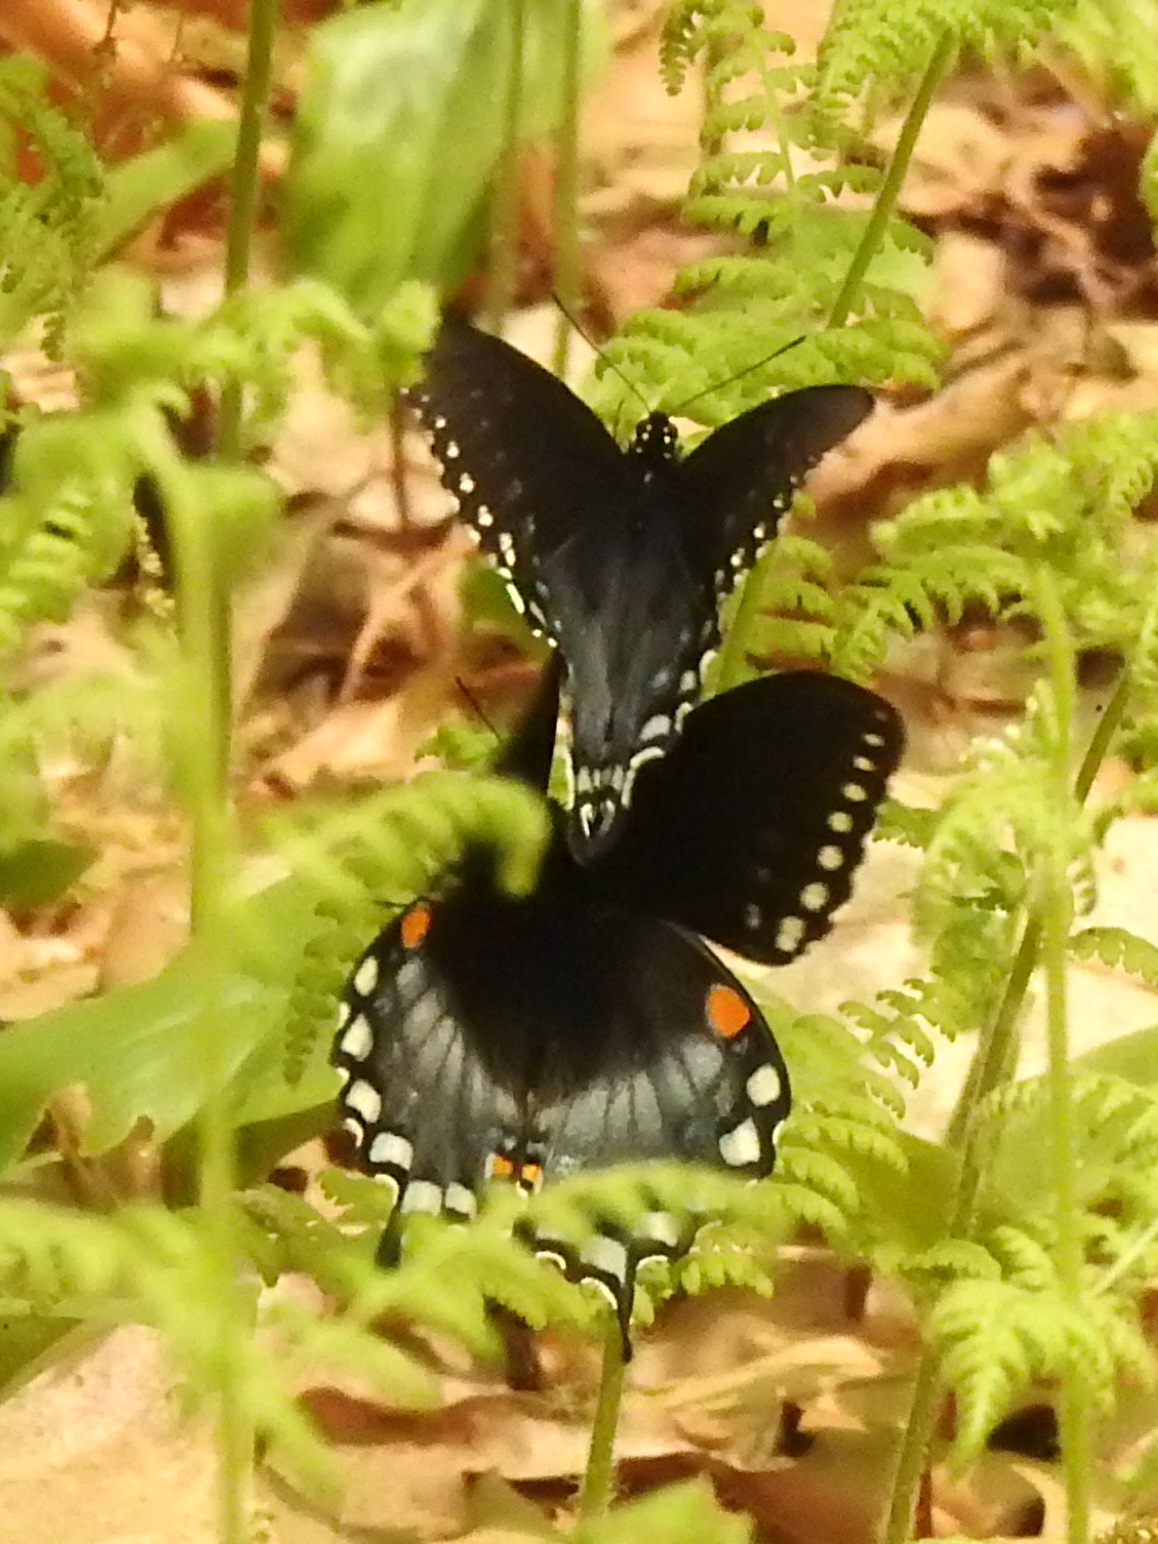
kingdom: Animalia
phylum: Arthropoda
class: Insecta
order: Lepidoptera
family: Papilionidae
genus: Papilio
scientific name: Papilio troilus
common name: Spicebush swallowtail
